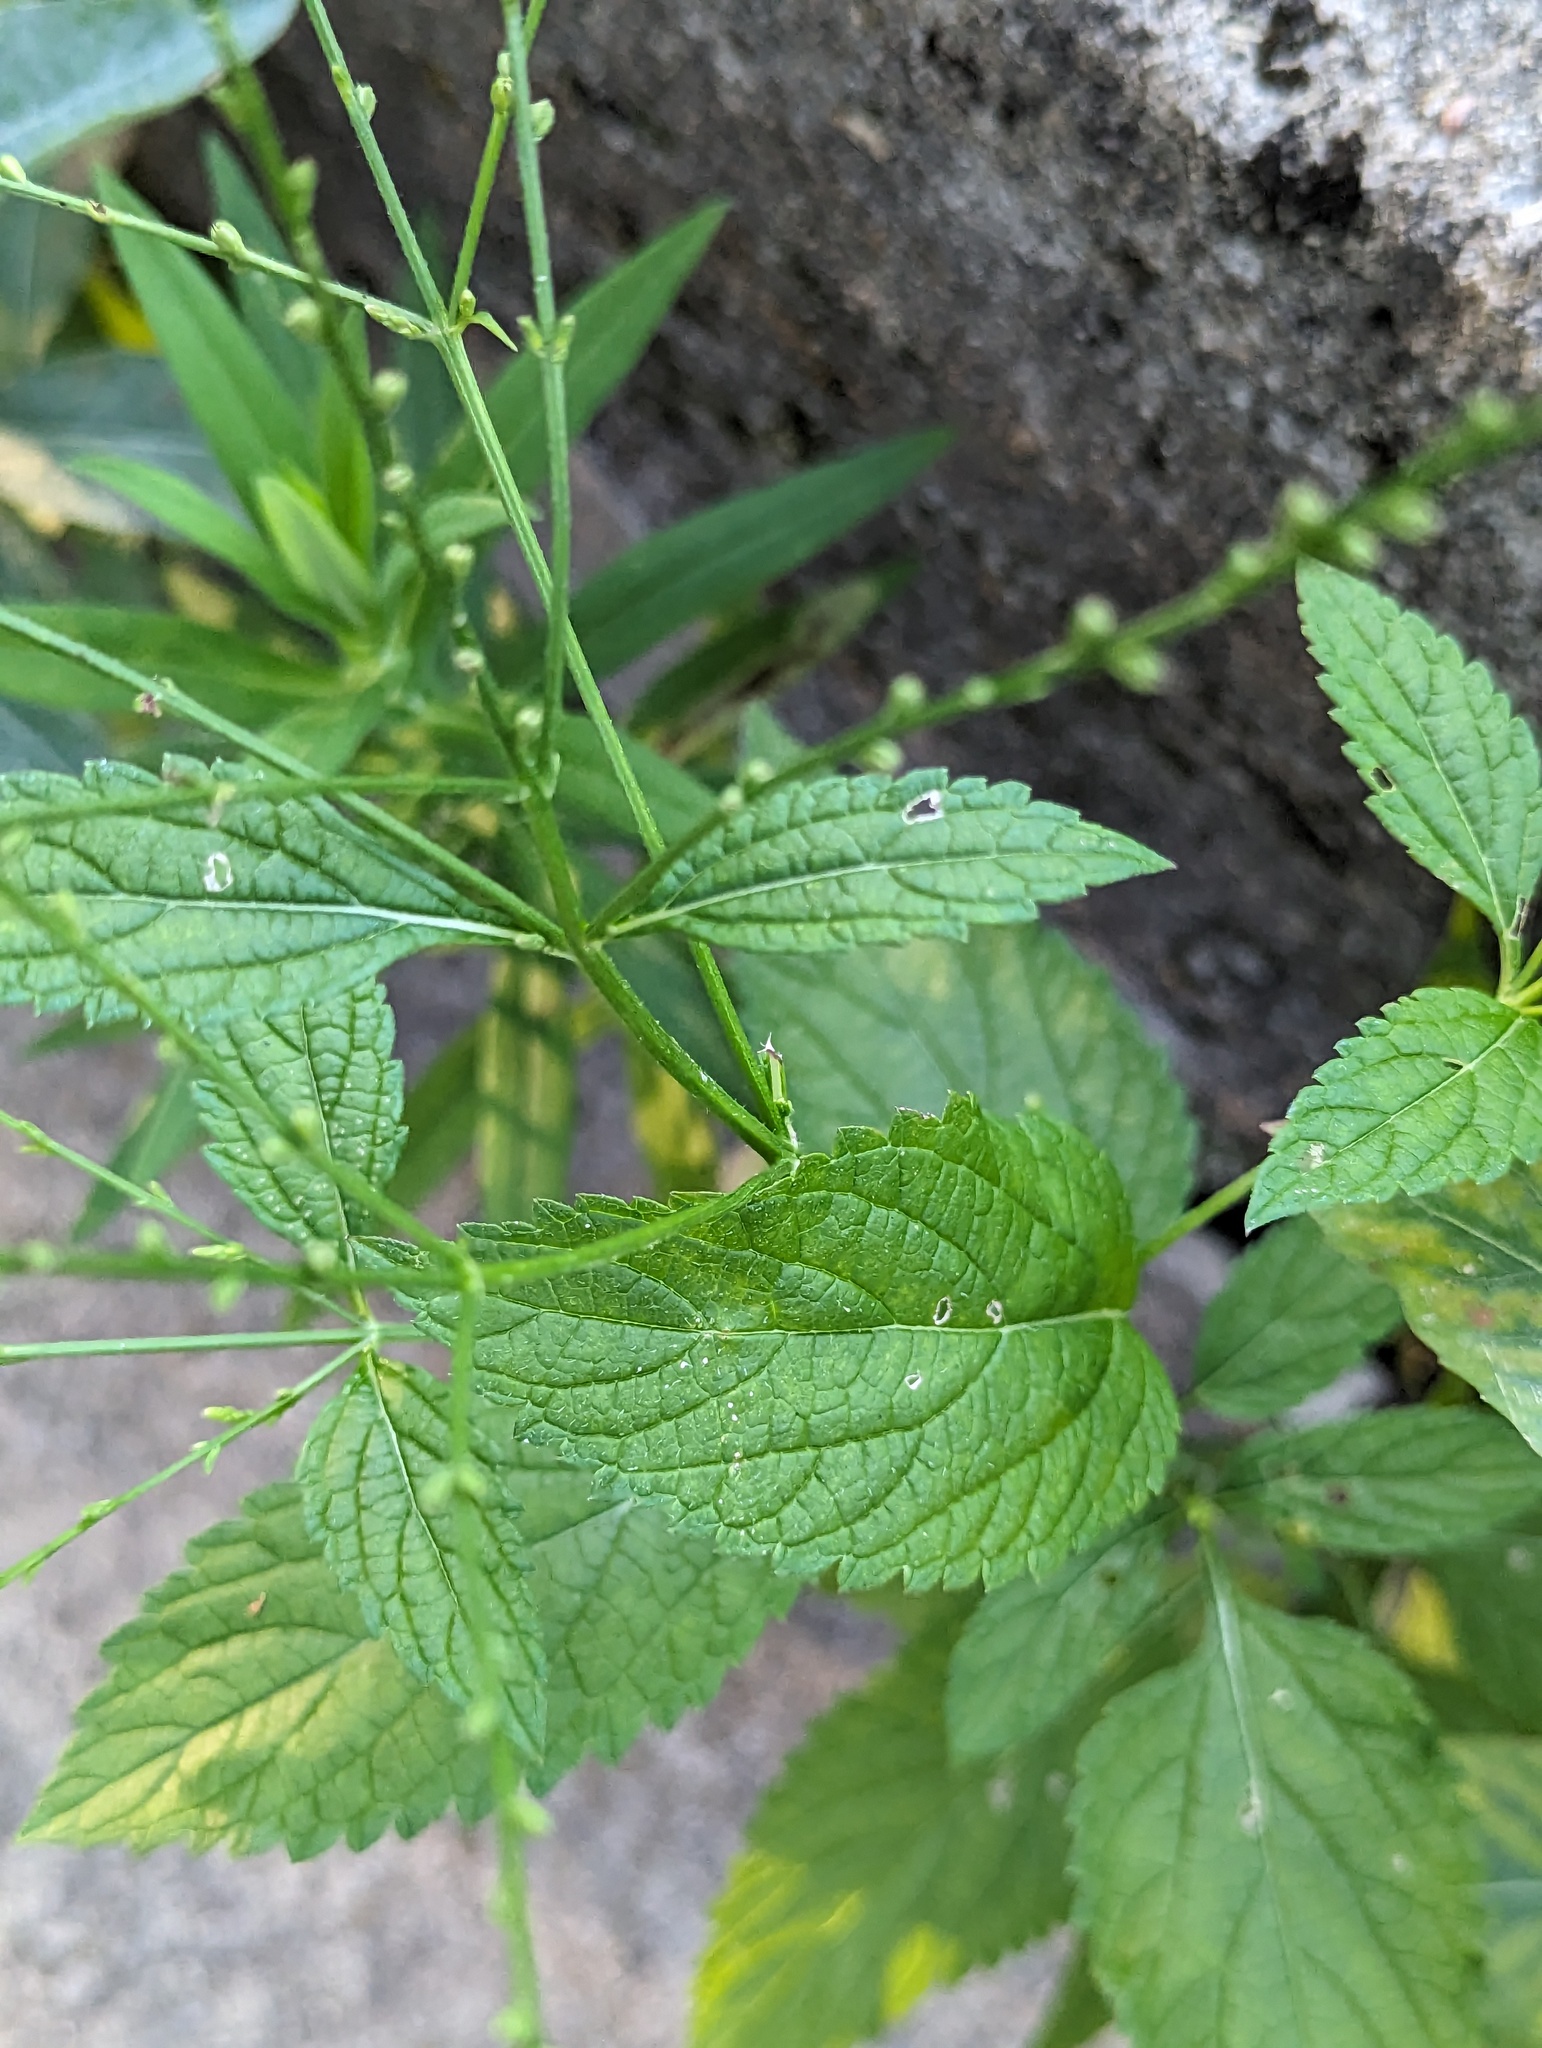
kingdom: Plantae
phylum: Tracheophyta
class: Magnoliopsida
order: Lamiales
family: Verbenaceae
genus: Verbena
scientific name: Verbena urticifolia
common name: Nettle-leaved vervain
